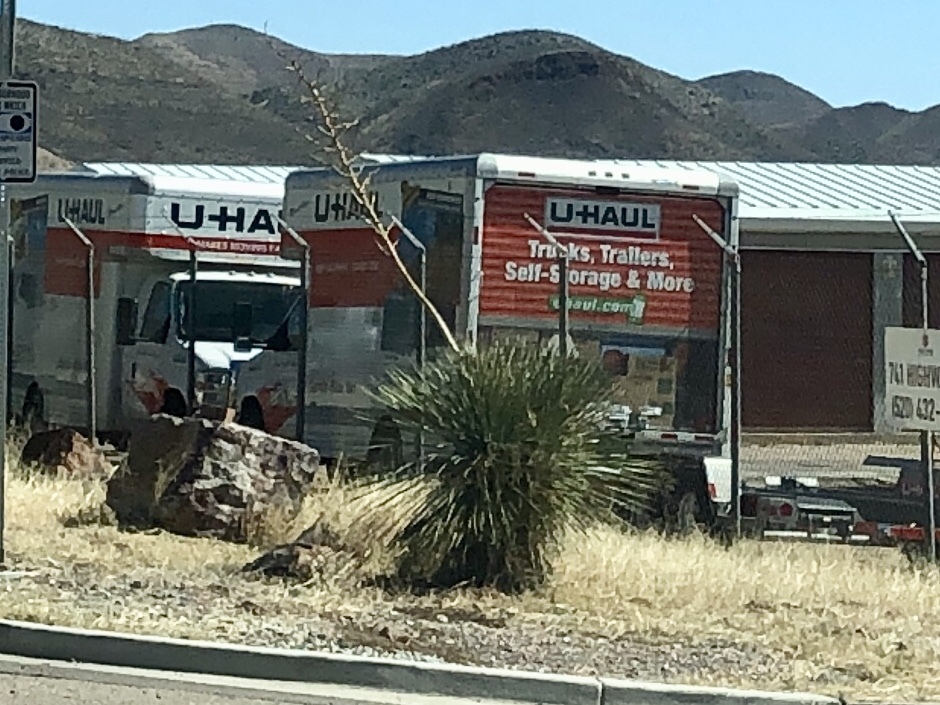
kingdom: Plantae
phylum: Tracheophyta
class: Liliopsida
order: Asparagales
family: Asparagaceae
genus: Yucca
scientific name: Yucca elata
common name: Palmella
